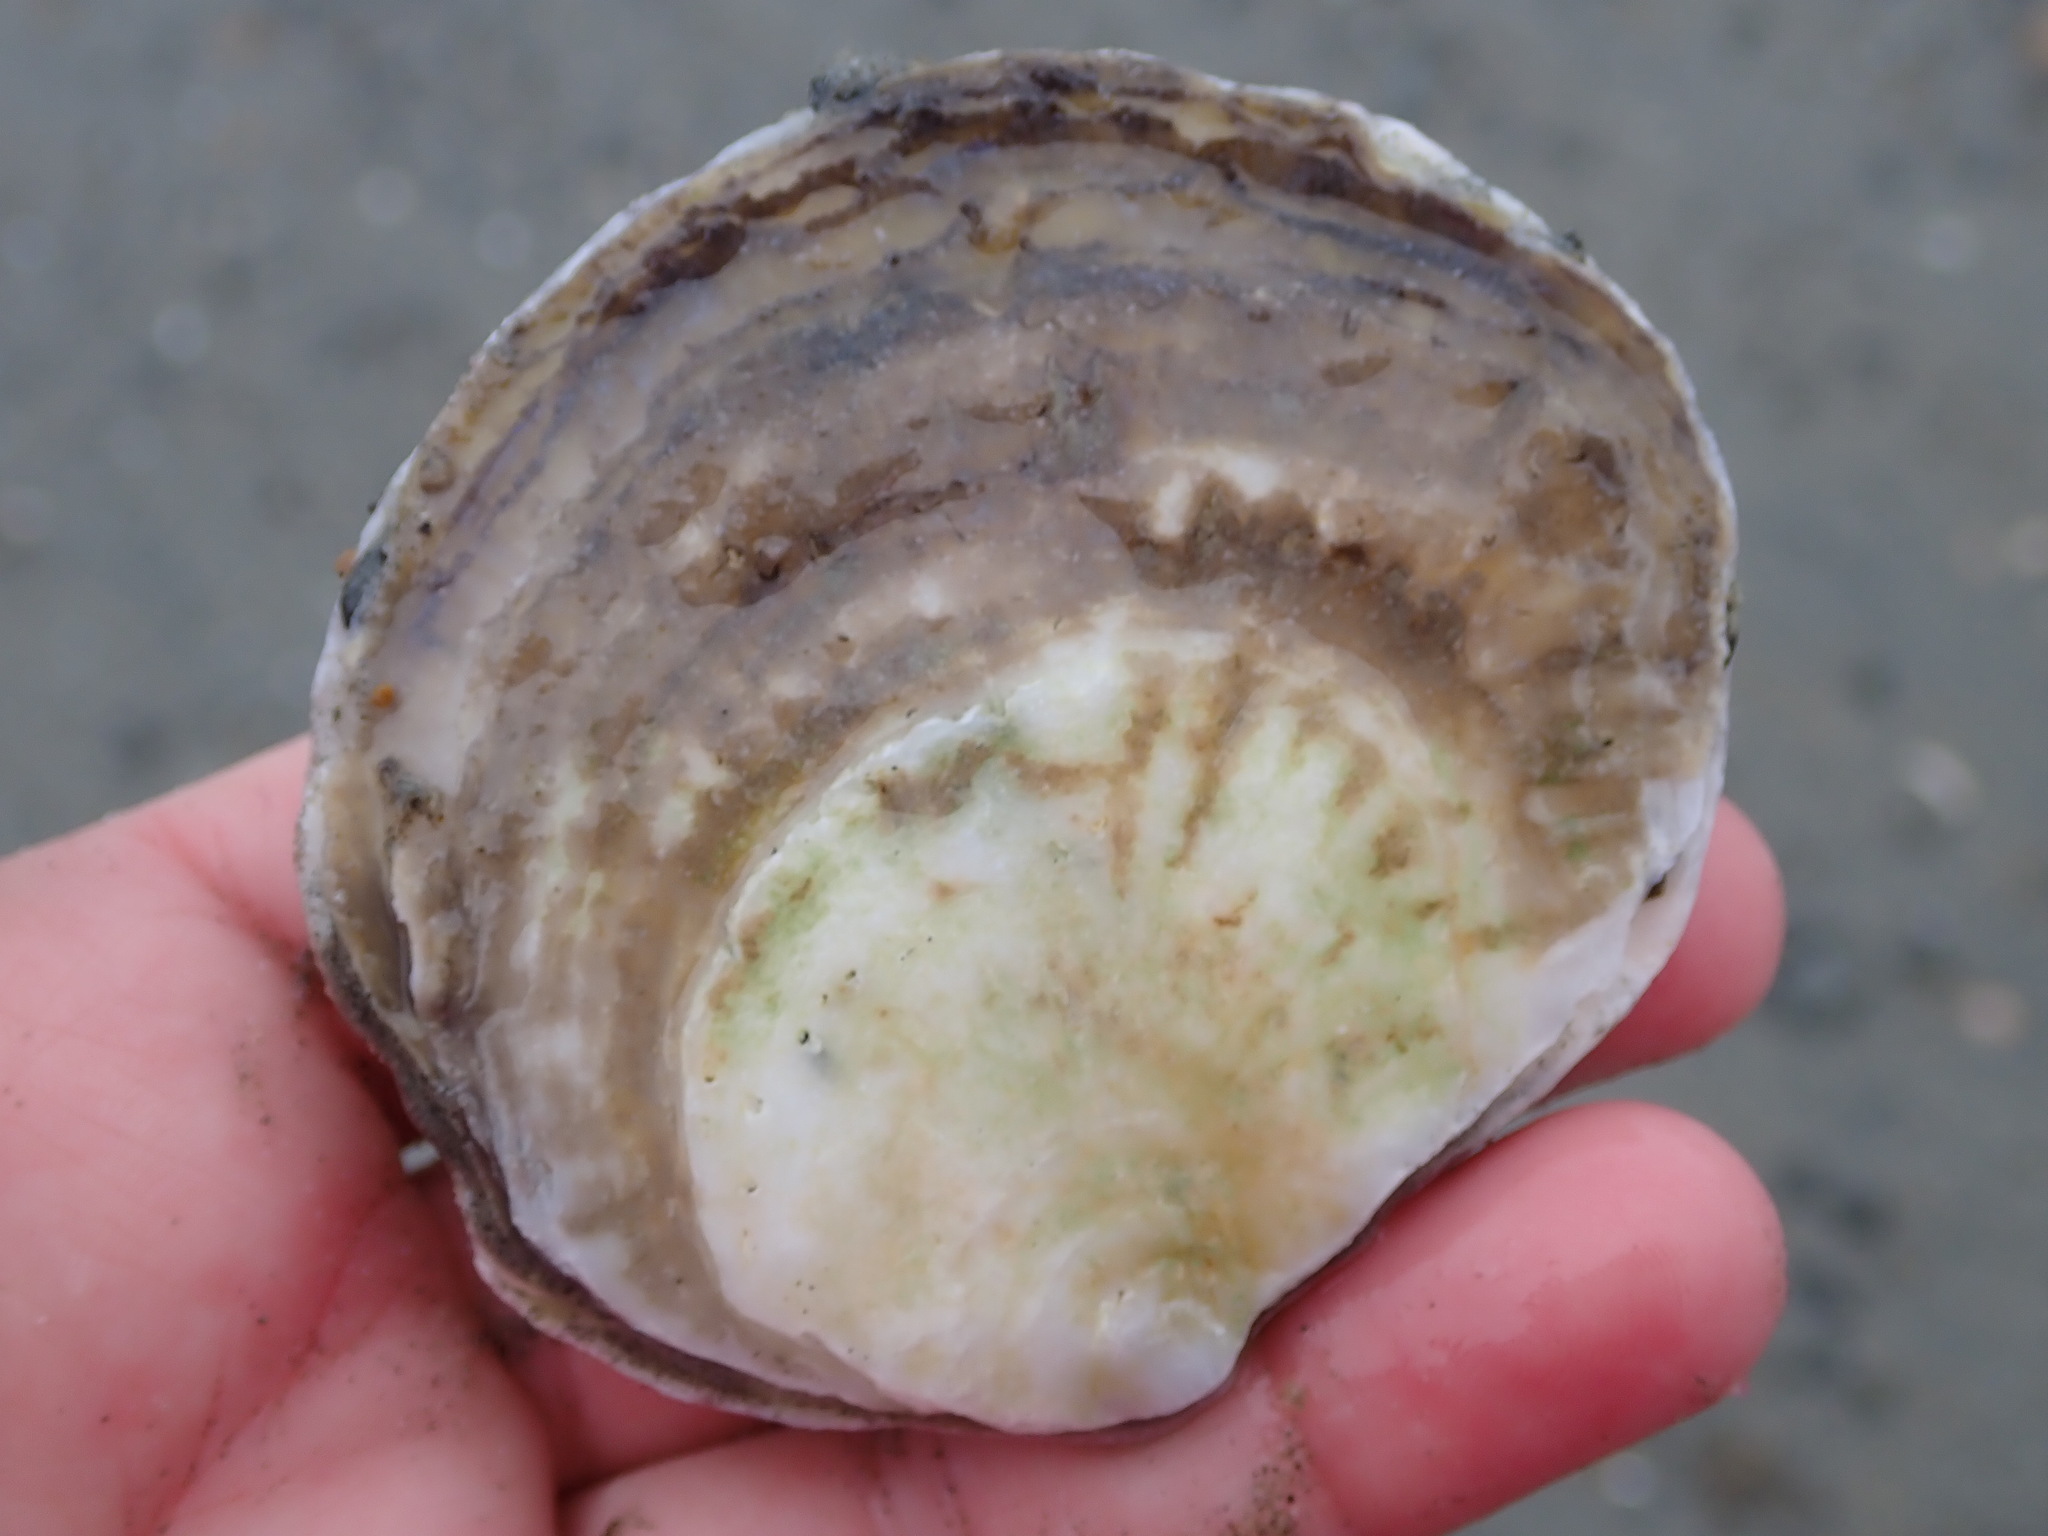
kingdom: Animalia
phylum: Mollusca
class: Bivalvia
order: Ostreida
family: Ostreidae
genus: Ostrea
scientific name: Ostrea edulis
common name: Flat oyster
